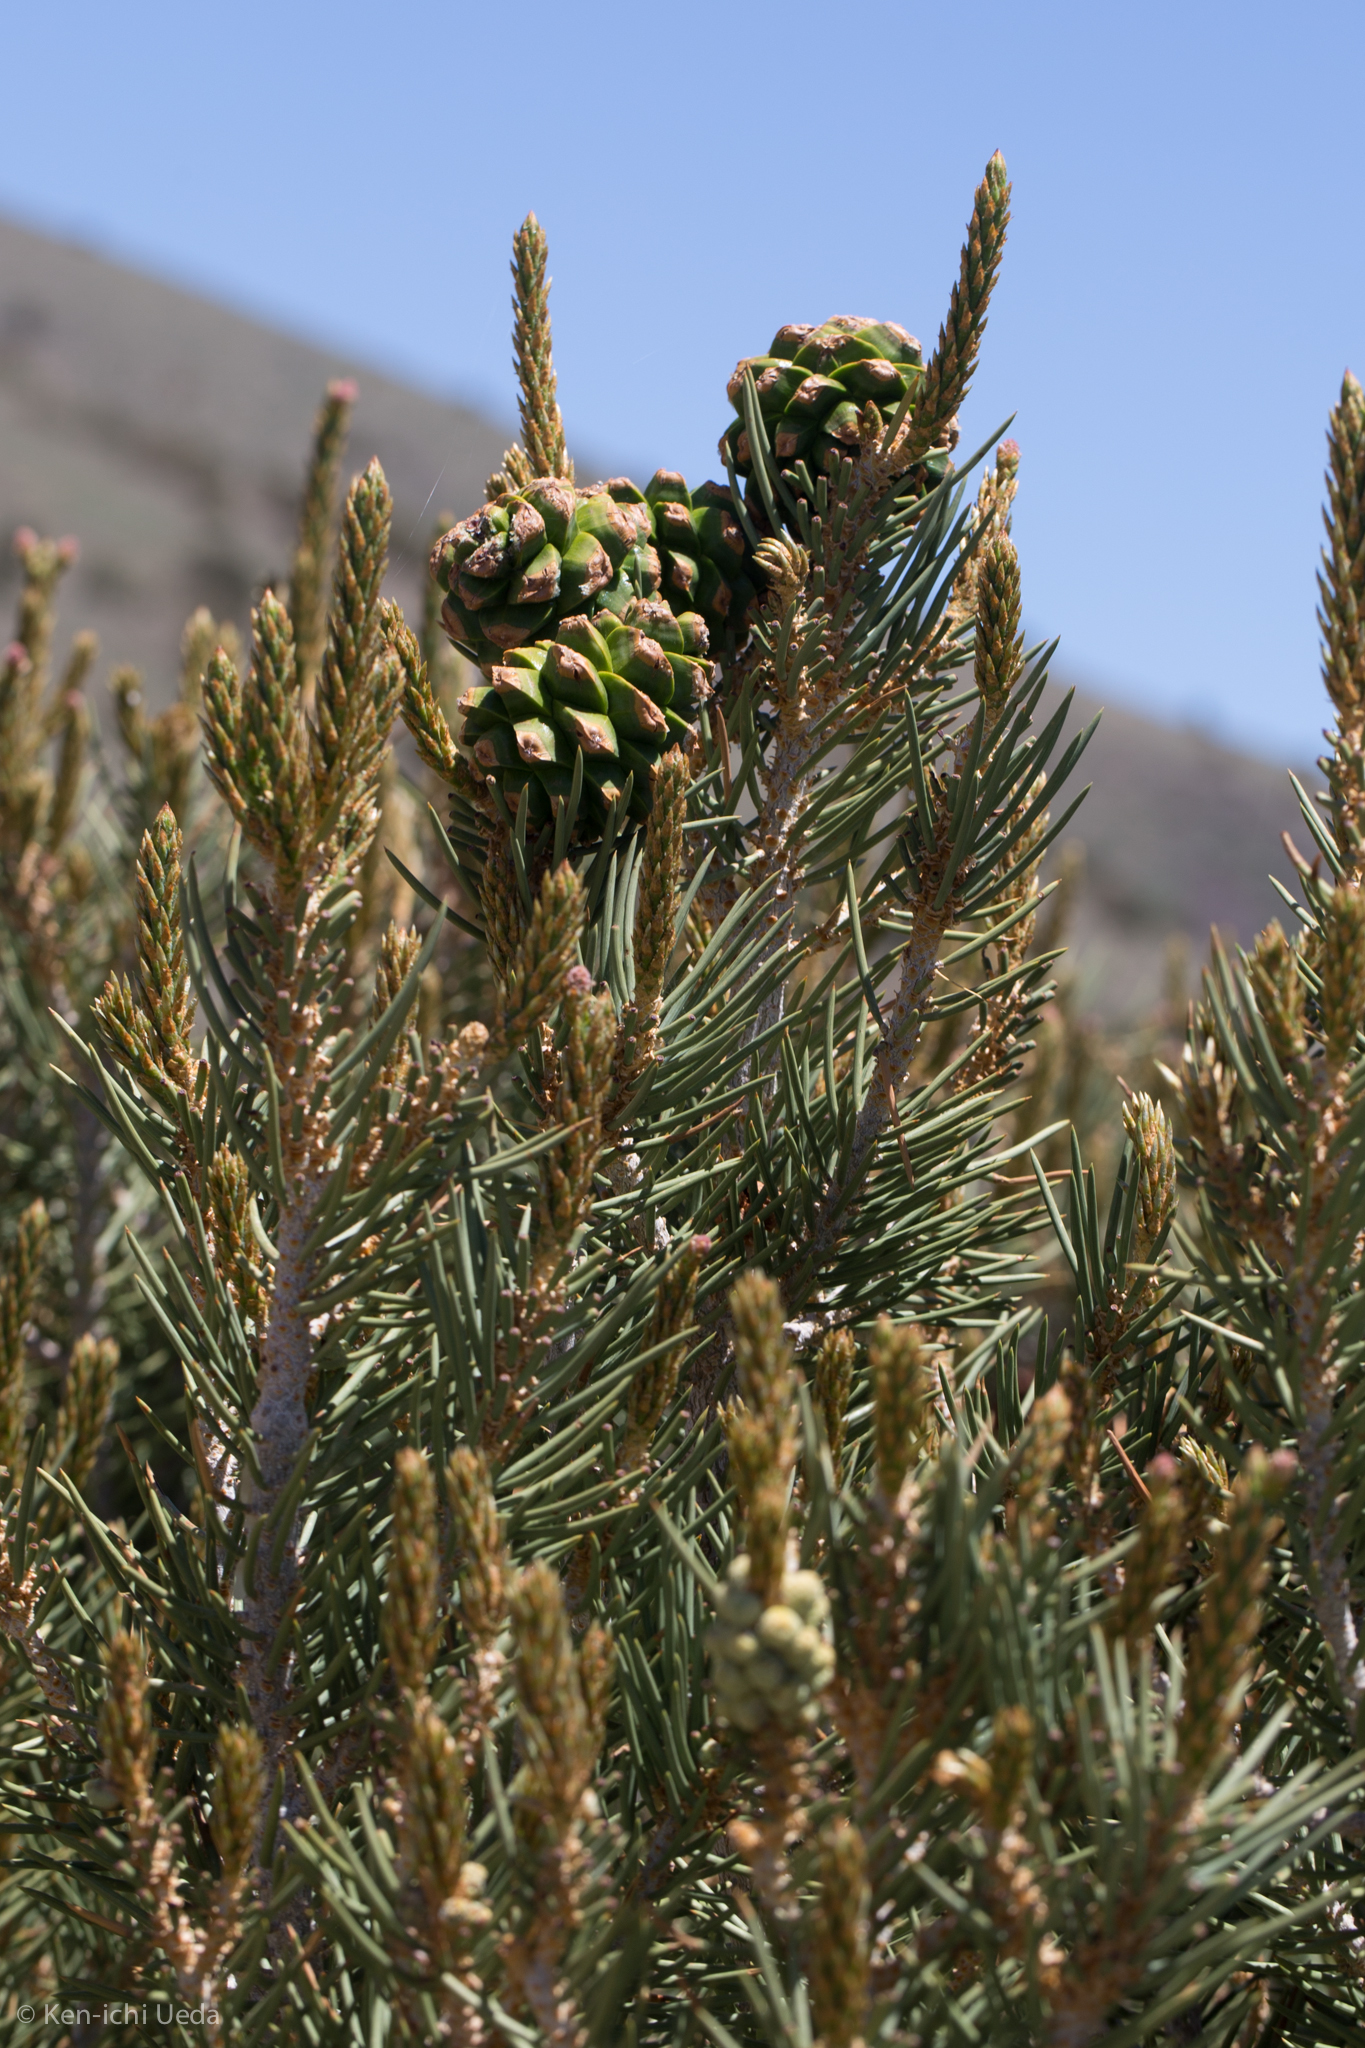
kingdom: Plantae
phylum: Tracheophyta
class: Pinopsida
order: Pinales
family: Pinaceae
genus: Pinus
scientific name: Pinus monophylla
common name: One-leaved nut pine
